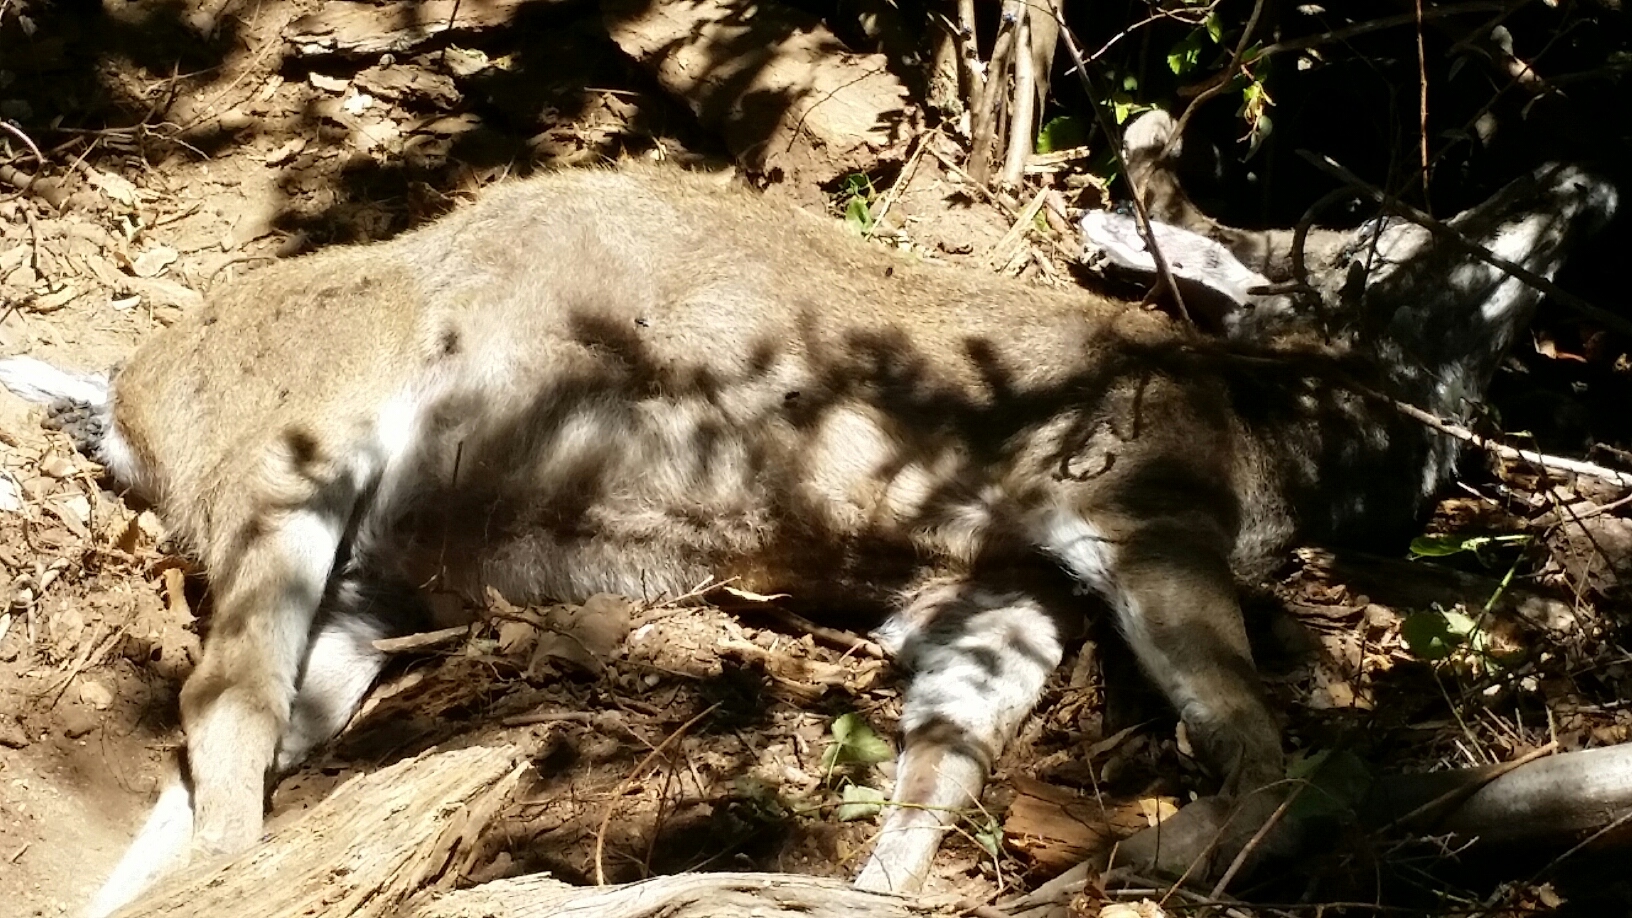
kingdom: Animalia
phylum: Chordata
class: Mammalia
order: Artiodactyla
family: Cervidae
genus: Odocoileus
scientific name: Odocoileus hemionus
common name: Mule deer
